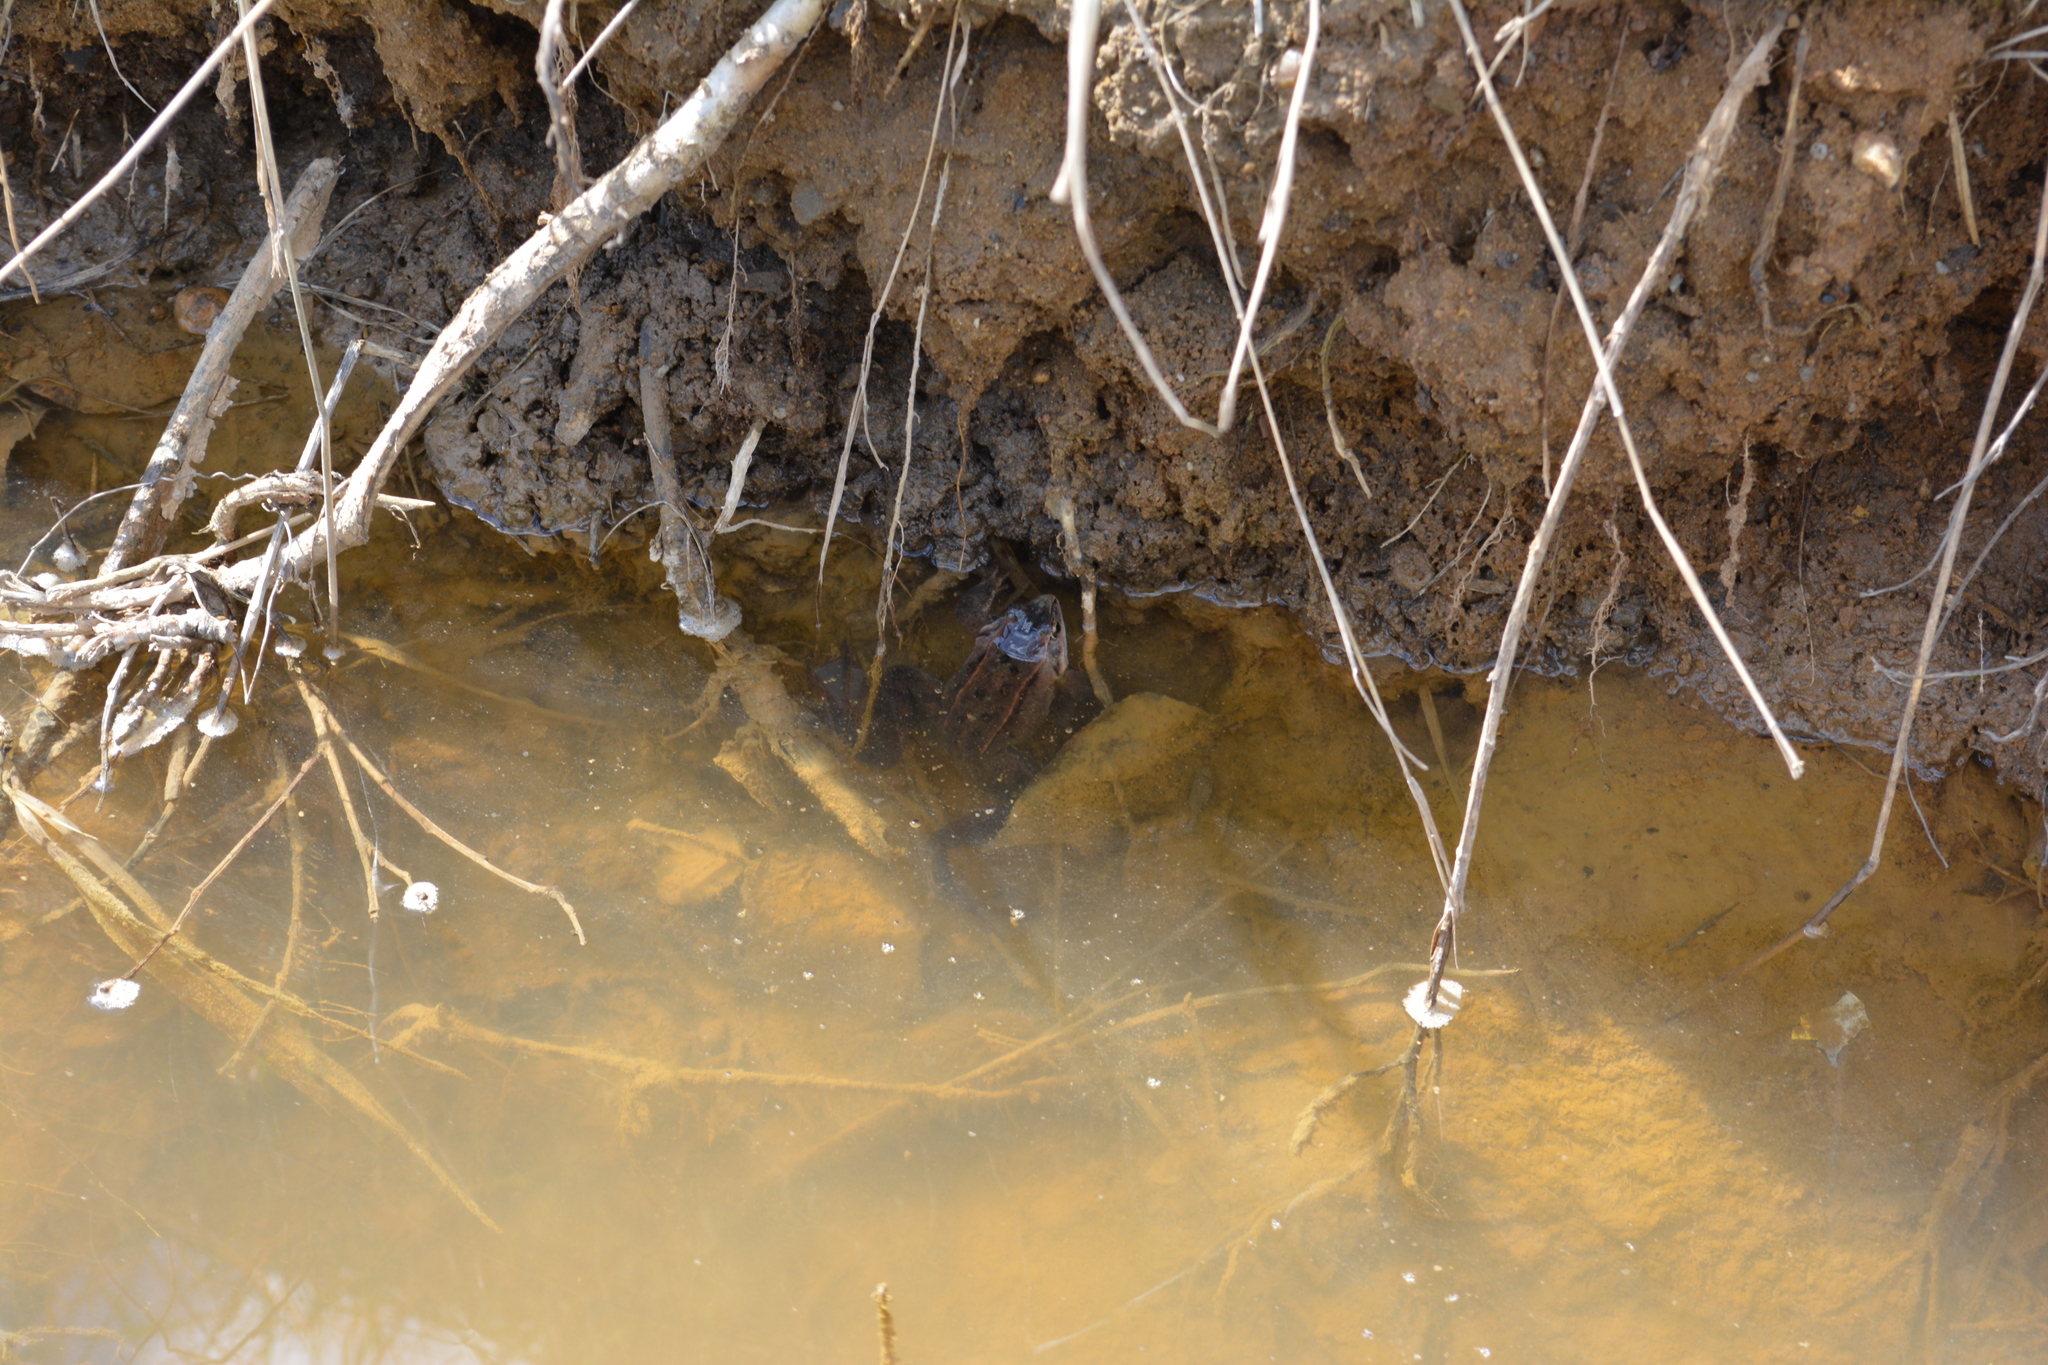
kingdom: Animalia
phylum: Chordata
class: Amphibia
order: Anura
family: Ranidae
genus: Rana
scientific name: Rana arvalis
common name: Moor frog
